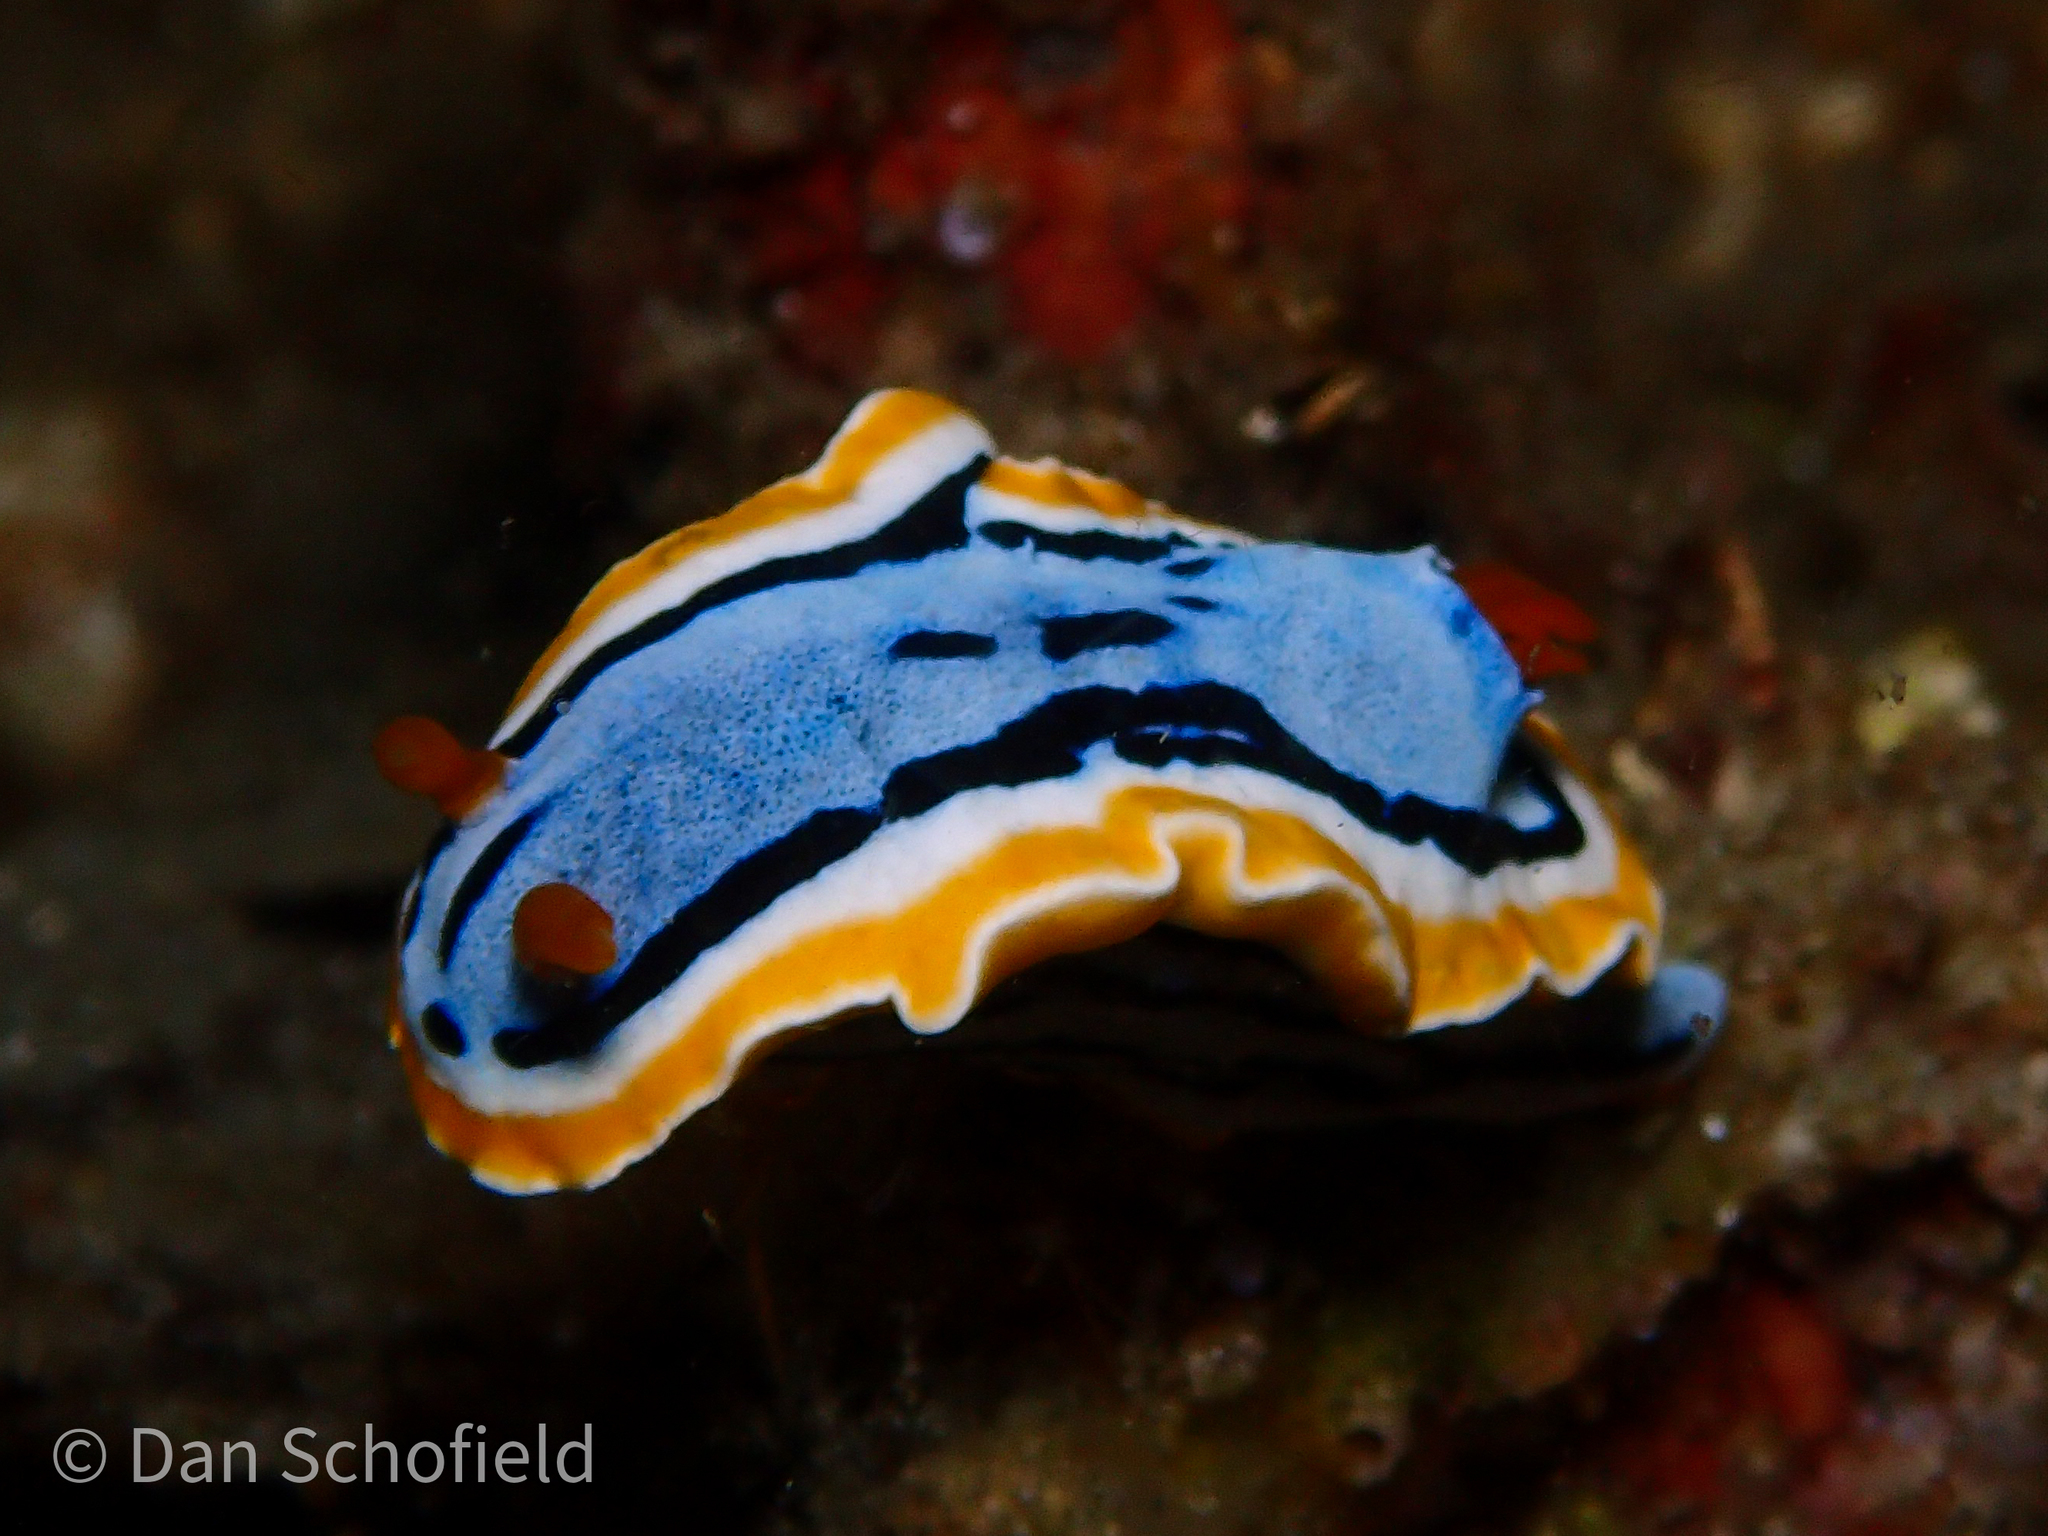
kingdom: Animalia
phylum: Mollusca
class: Gastropoda
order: Nudibranchia
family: Chromodorididae
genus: Chromodoris
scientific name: Chromodoris annae
